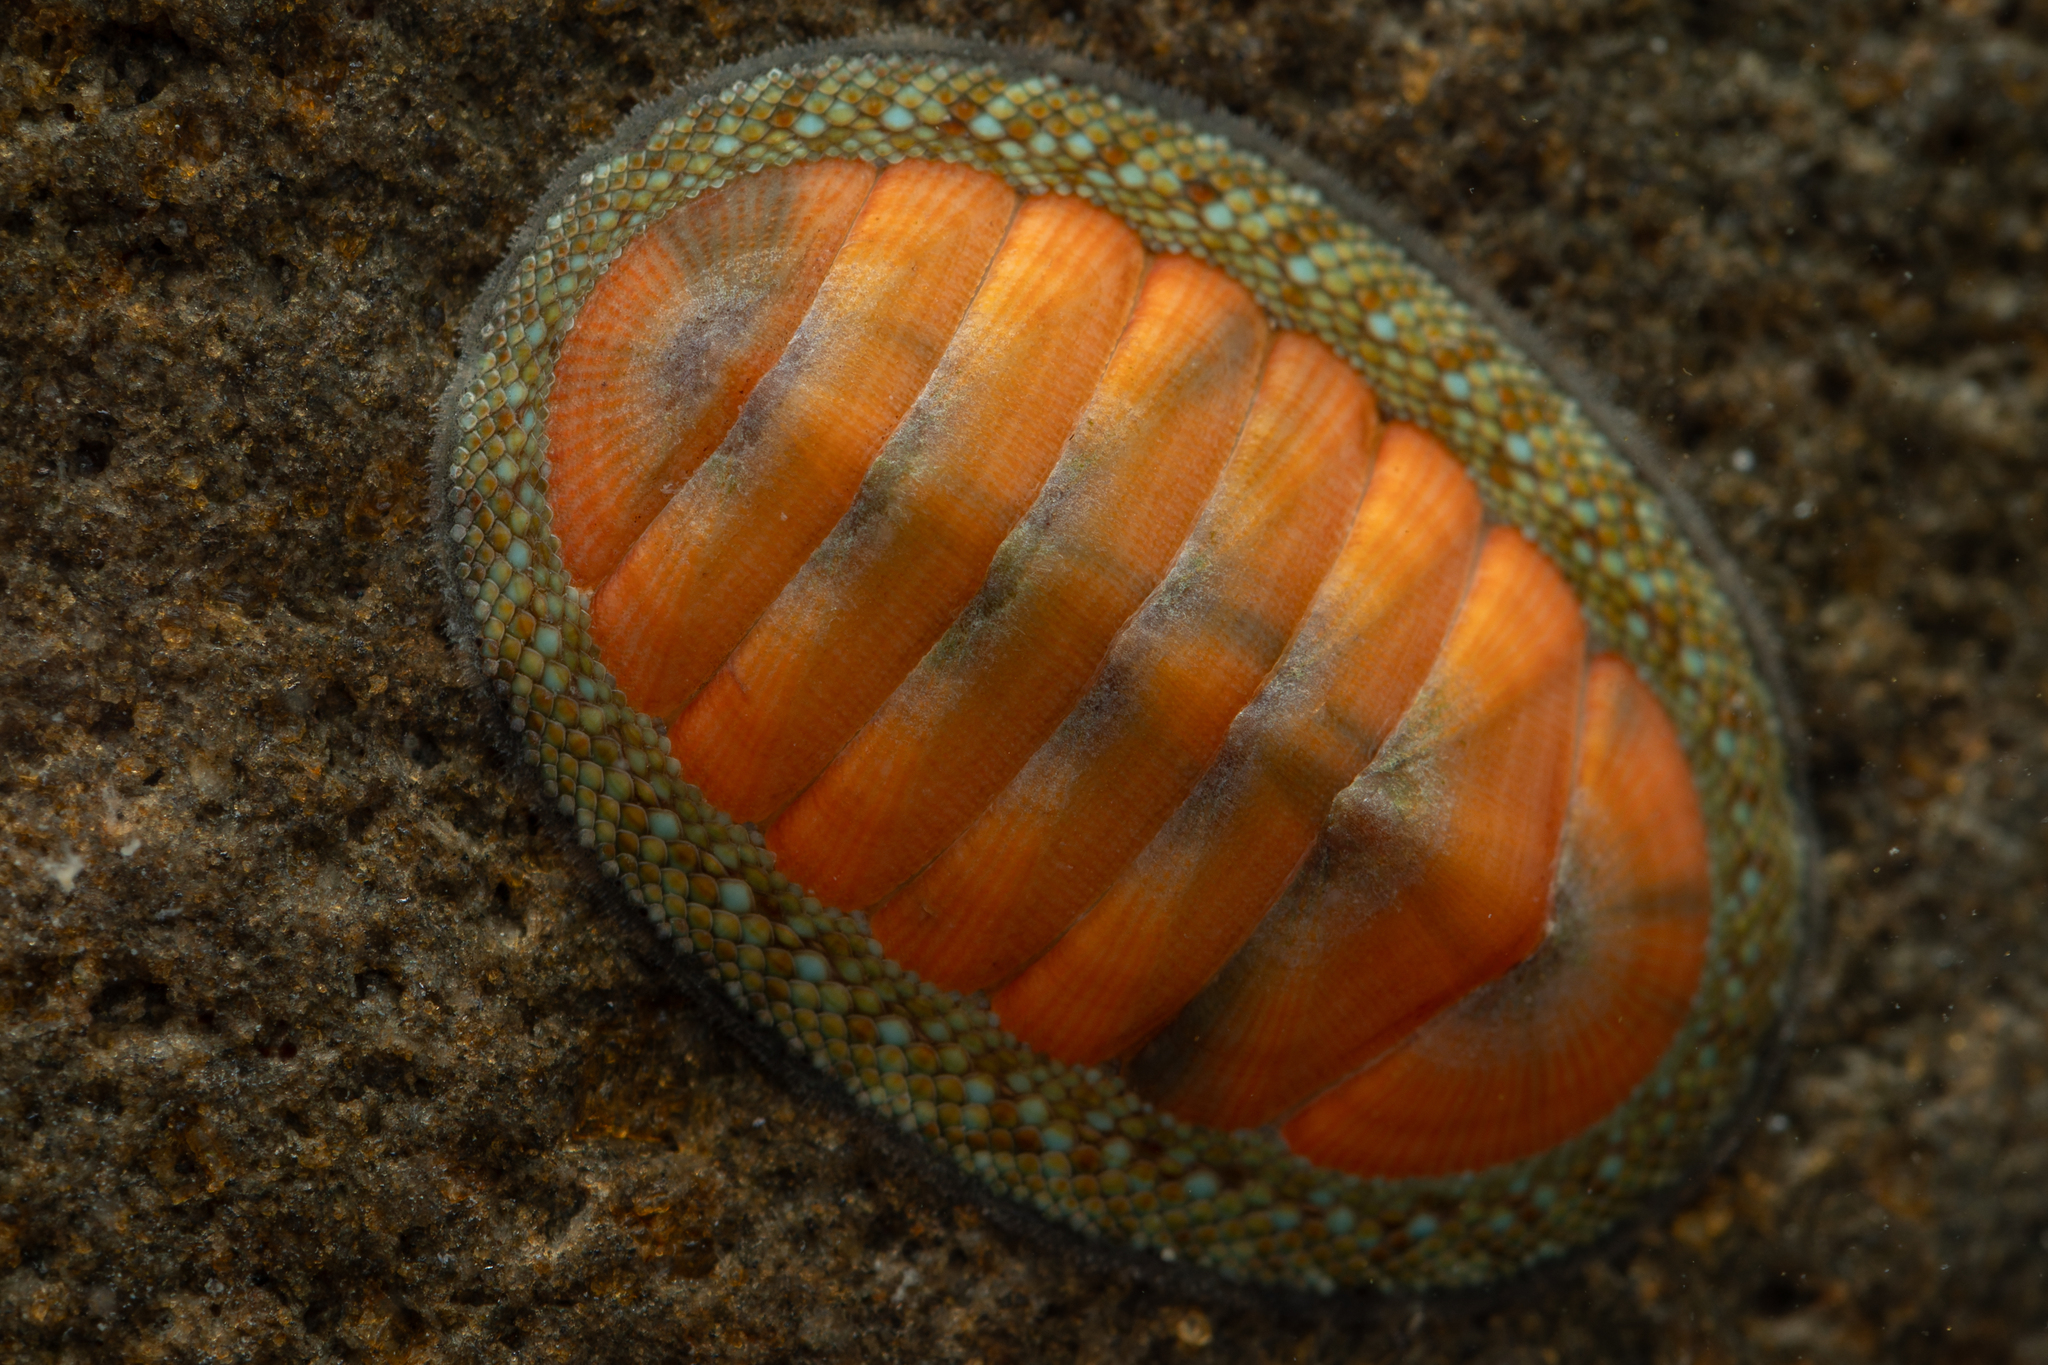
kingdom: Animalia
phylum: Mollusca
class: Polyplacophora
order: Chitonida
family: Chitonidae
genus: Chiton
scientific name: Chiton glaucus
